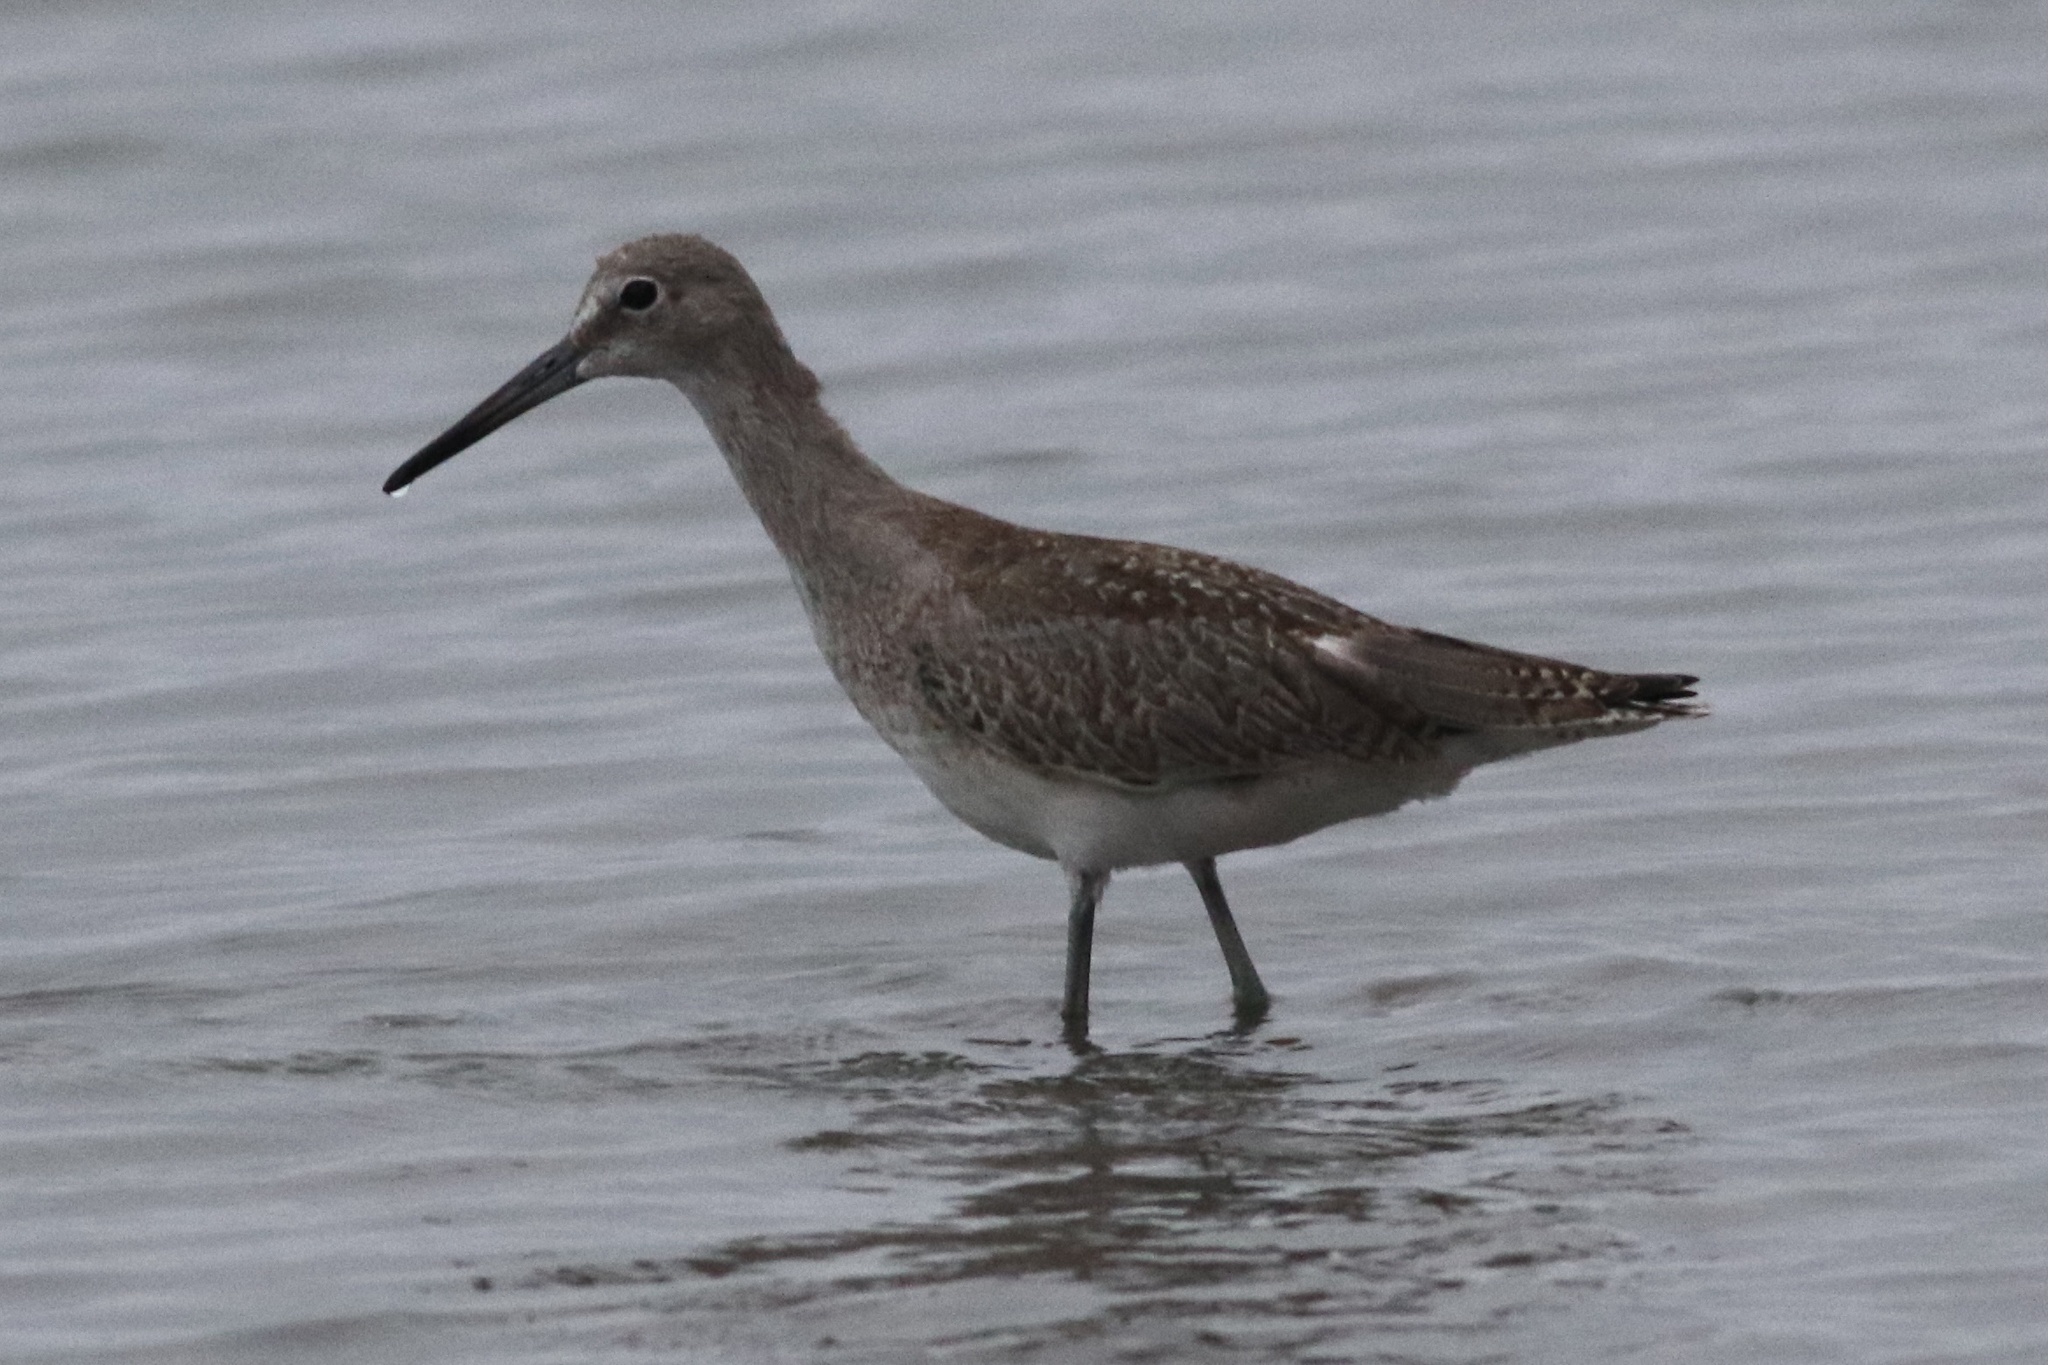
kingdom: Animalia
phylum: Chordata
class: Aves
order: Charadriiformes
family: Scolopacidae
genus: Tringa
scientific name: Tringa semipalmata
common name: Willet
